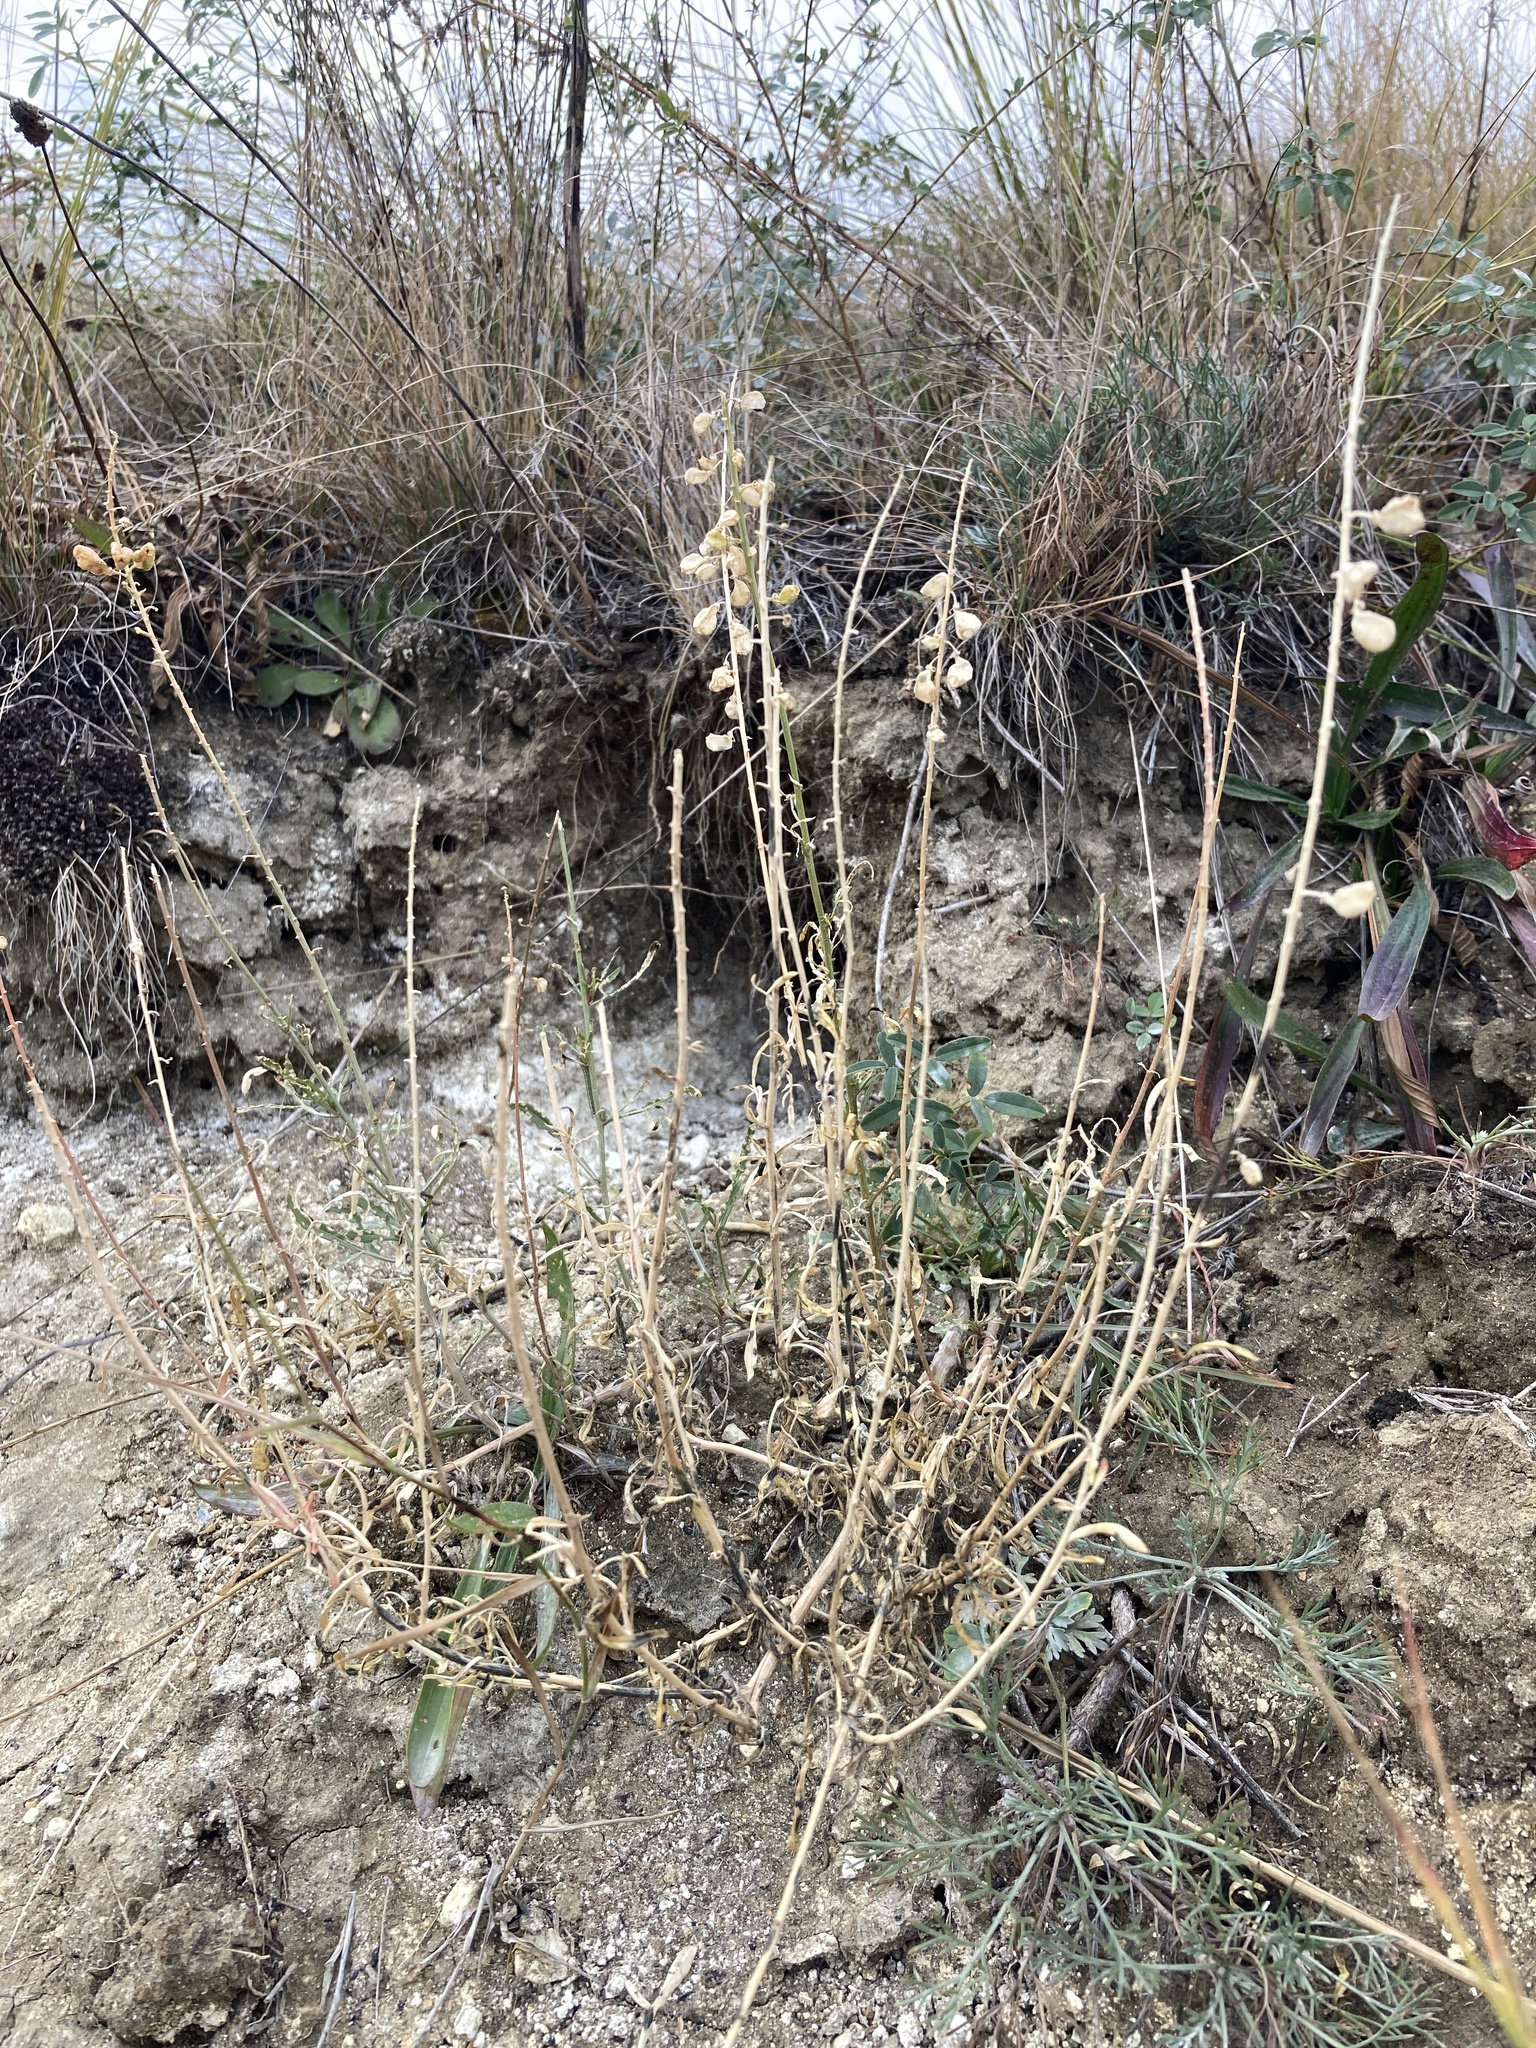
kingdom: Plantae
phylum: Tracheophyta
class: Magnoliopsida
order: Brassicales
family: Resedaceae
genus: Reseda
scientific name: Reseda lutea
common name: Wild mignonette
